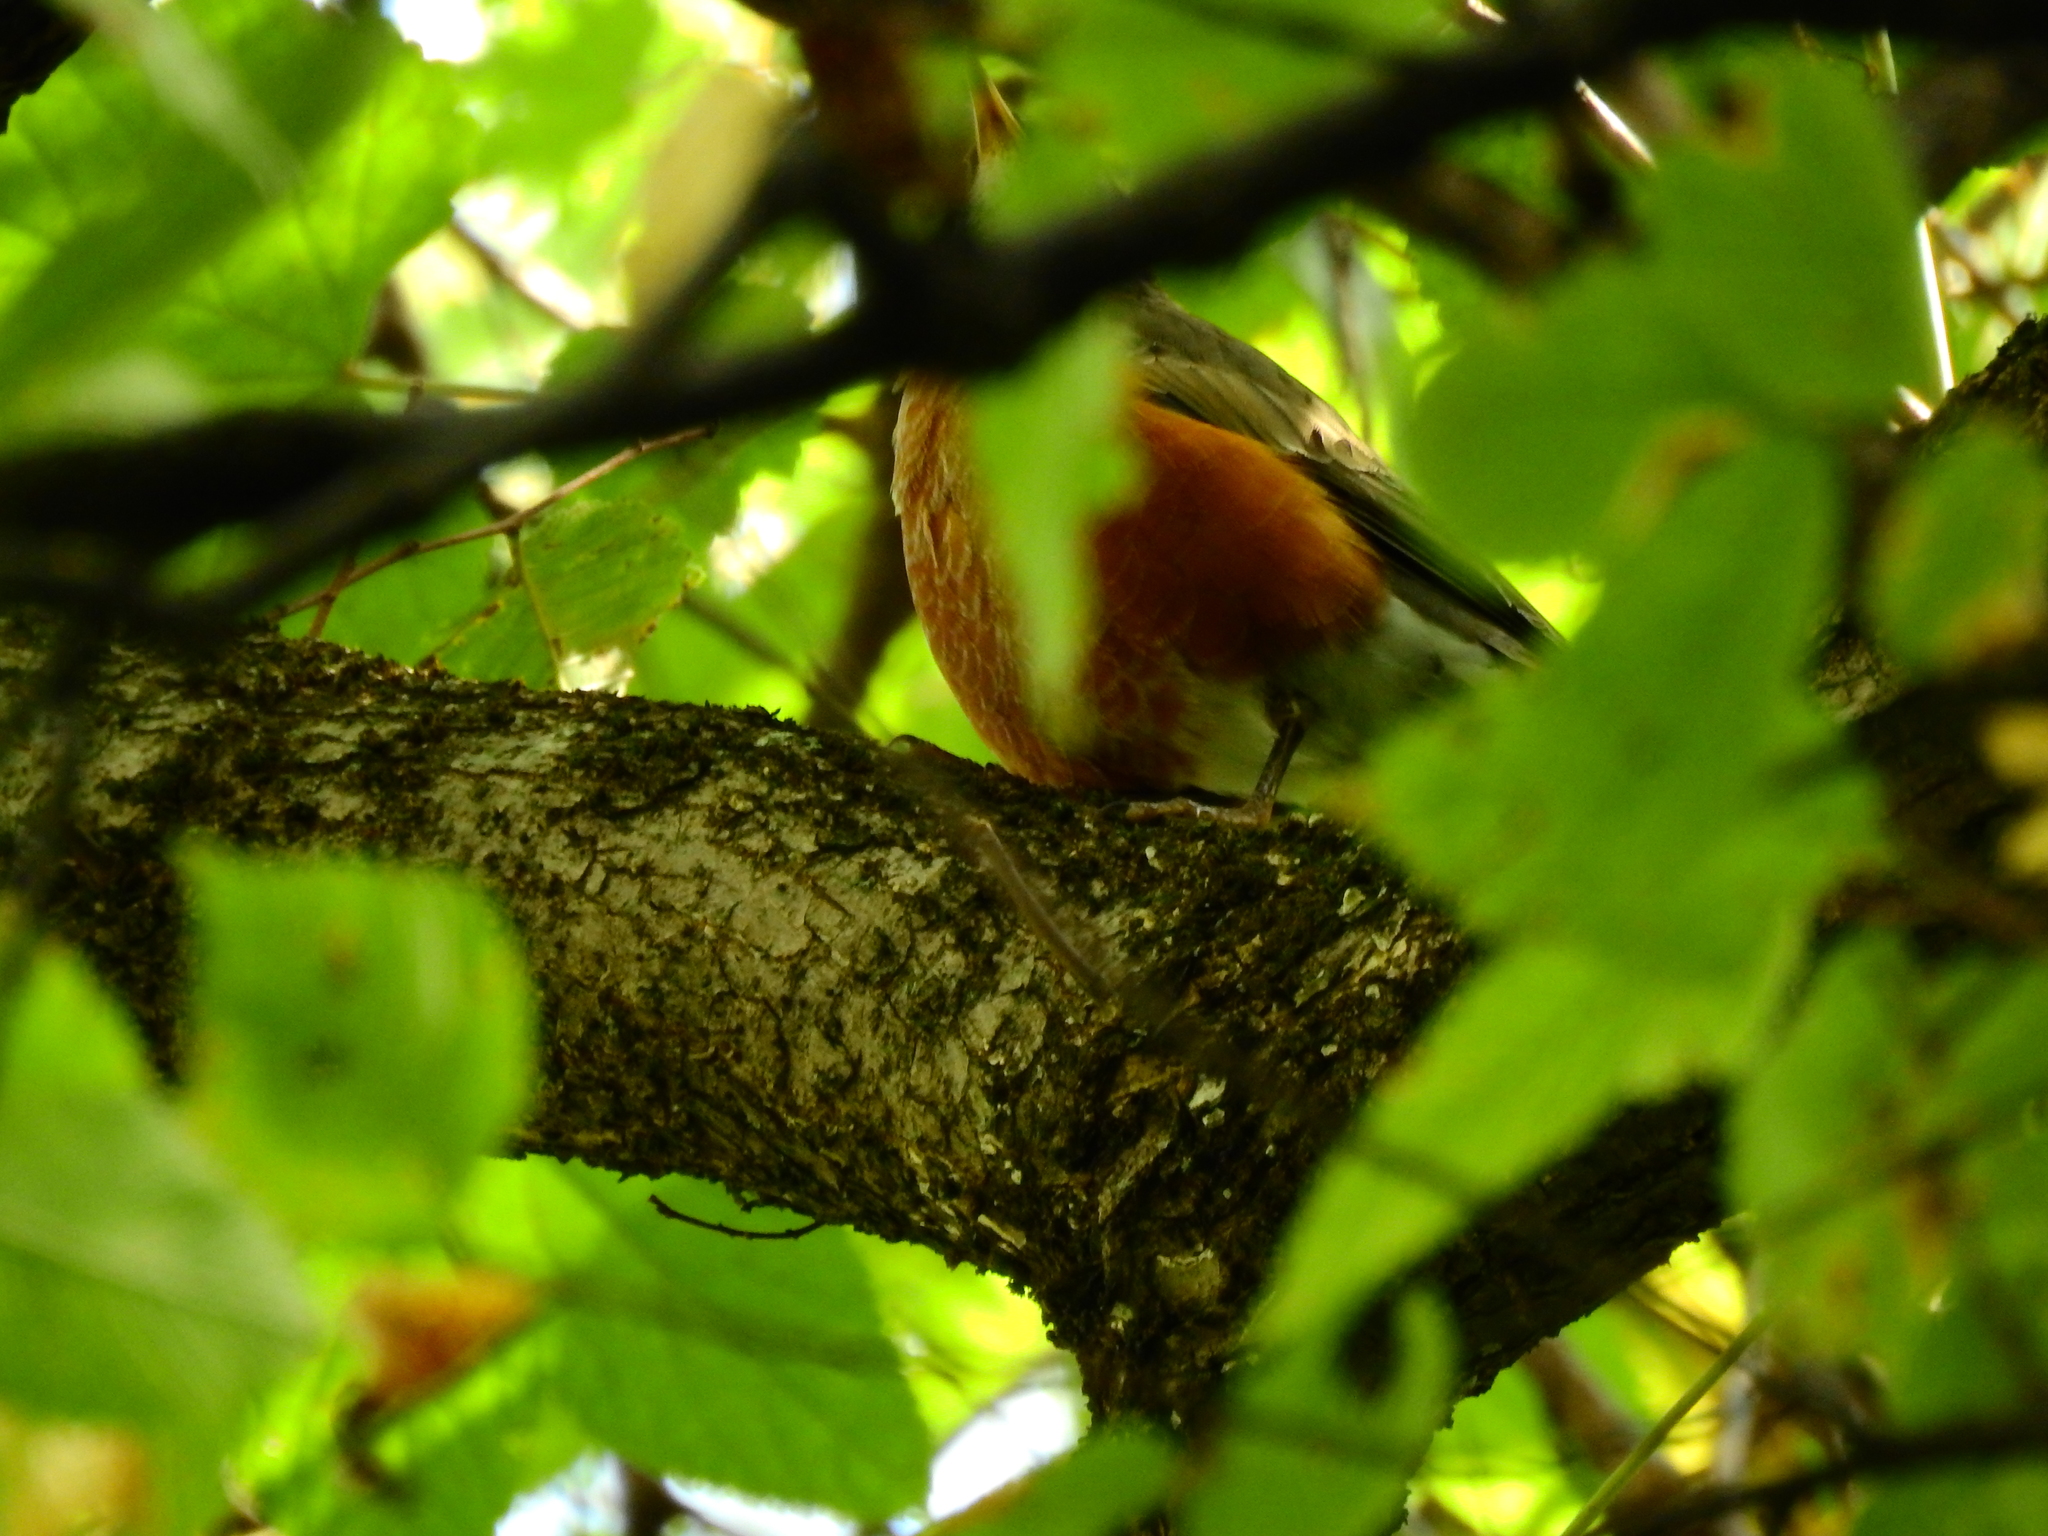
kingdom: Animalia
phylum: Chordata
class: Aves
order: Passeriformes
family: Turdidae
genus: Turdus
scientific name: Turdus migratorius
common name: American robin
